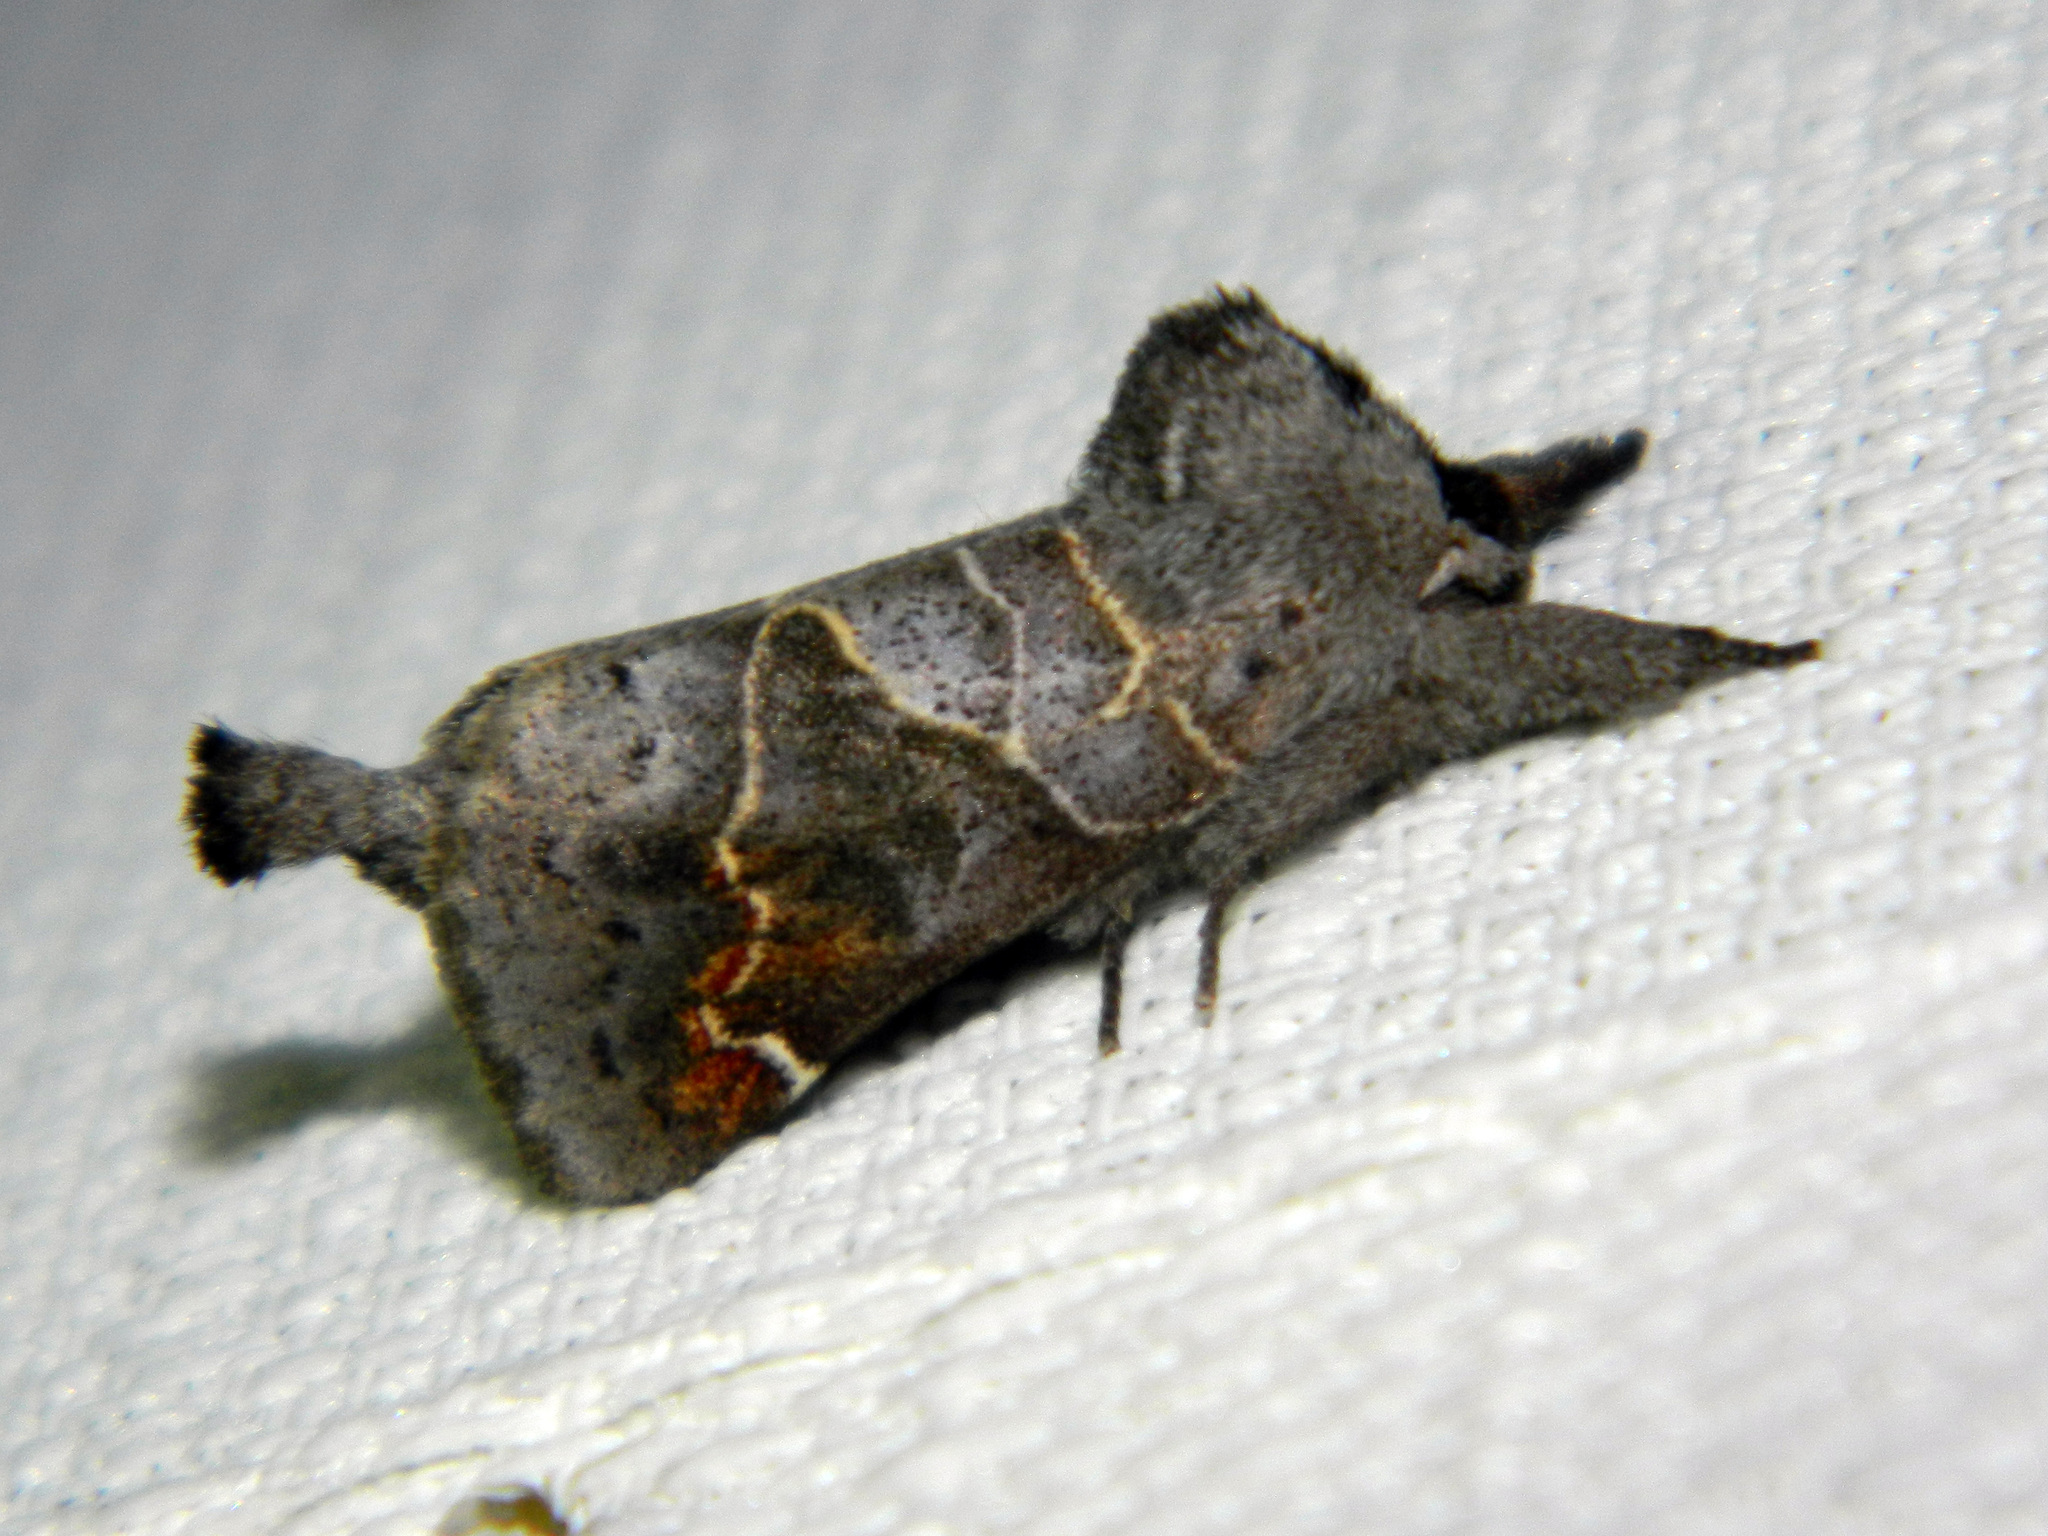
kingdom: Animalia
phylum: Arthropoda
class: Insecta
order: Lepidoptera
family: Notodontidae
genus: Clostera
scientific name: Clostera apicalis
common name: Apical prominent
